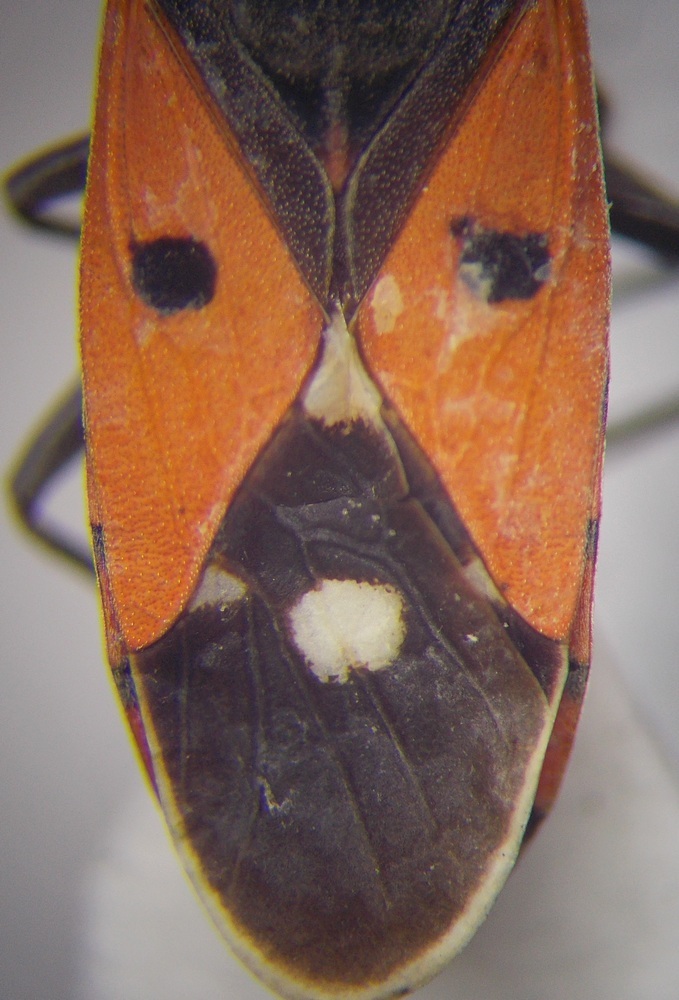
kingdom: Animalia
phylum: Arthropoda
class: Insecta
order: Hemiptera
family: Lygaeidae
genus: Melanocoryphus
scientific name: Melanocoryphus albomaculatus
